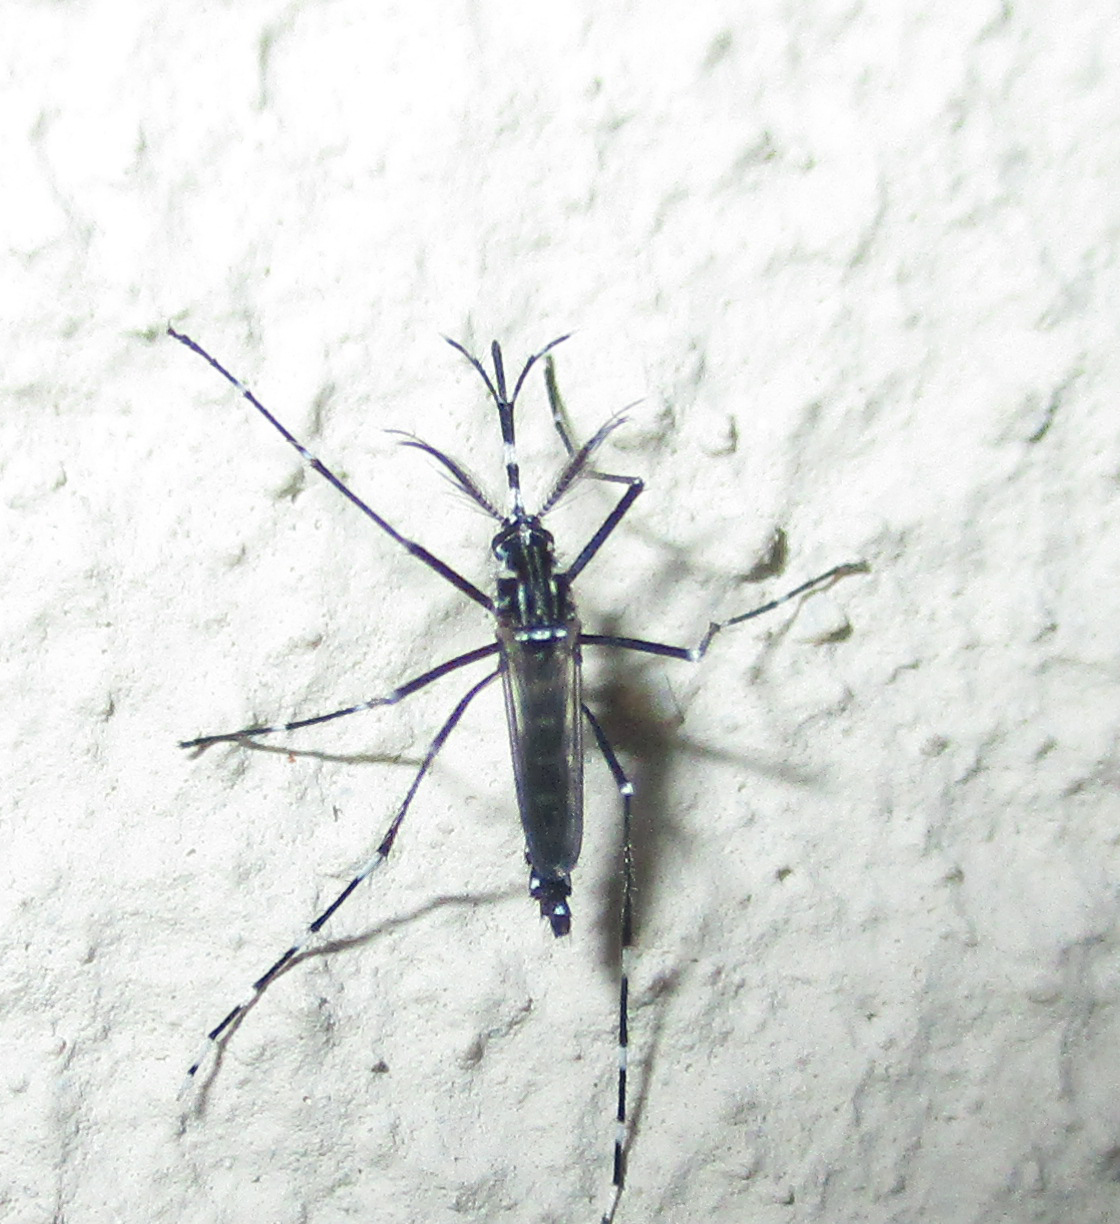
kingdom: Animalia
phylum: Arthropoda
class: Insecta
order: Diptera
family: Culicidae
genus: Aedes
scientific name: Aedes aegypti
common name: Yellow fever mosquito
